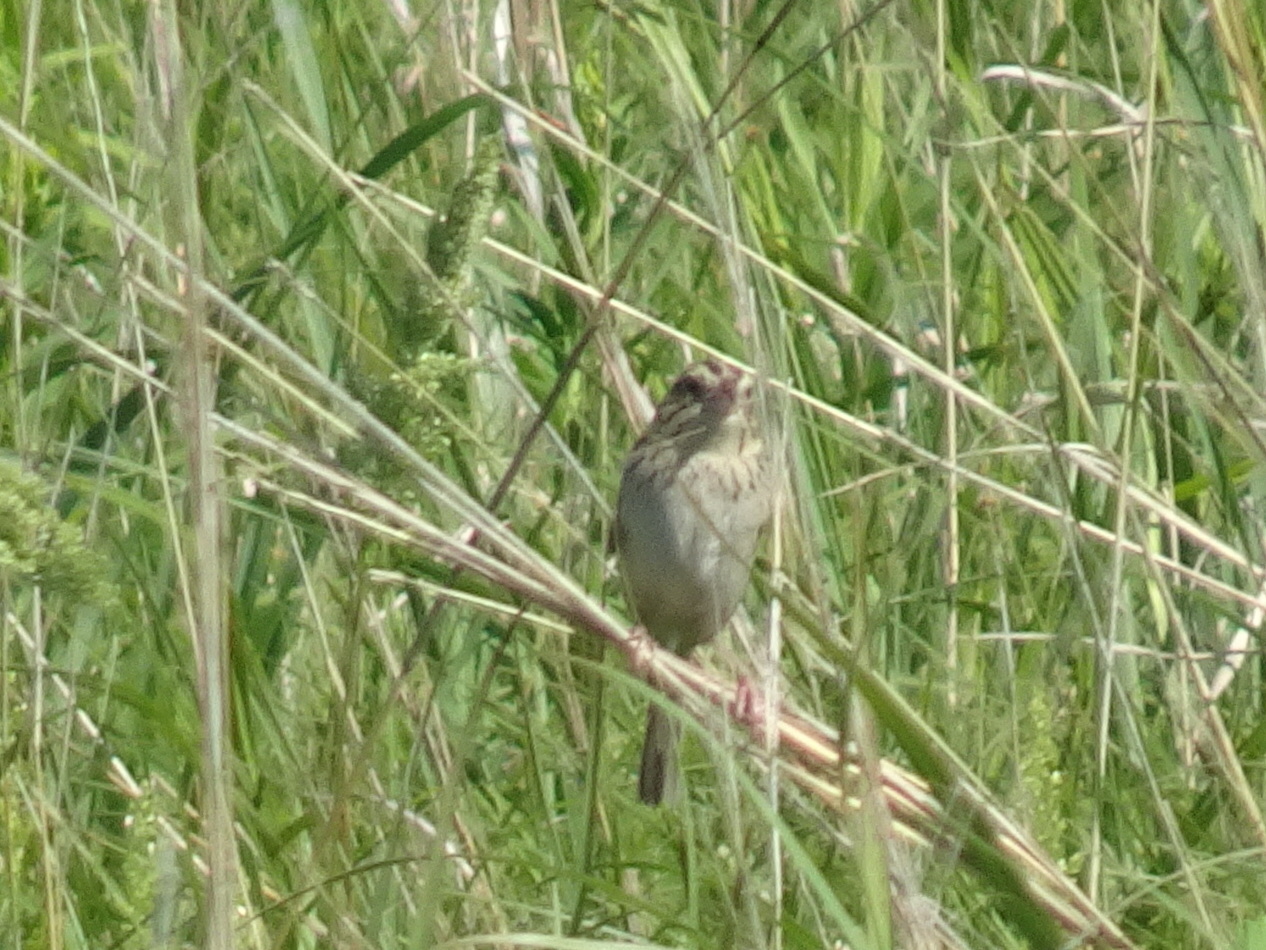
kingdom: Animalia
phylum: Chordata
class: Aves
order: Passeriformes
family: Passerellidae
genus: Centronyx
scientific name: Centronyx henslowii
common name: Henslow's sparrow
